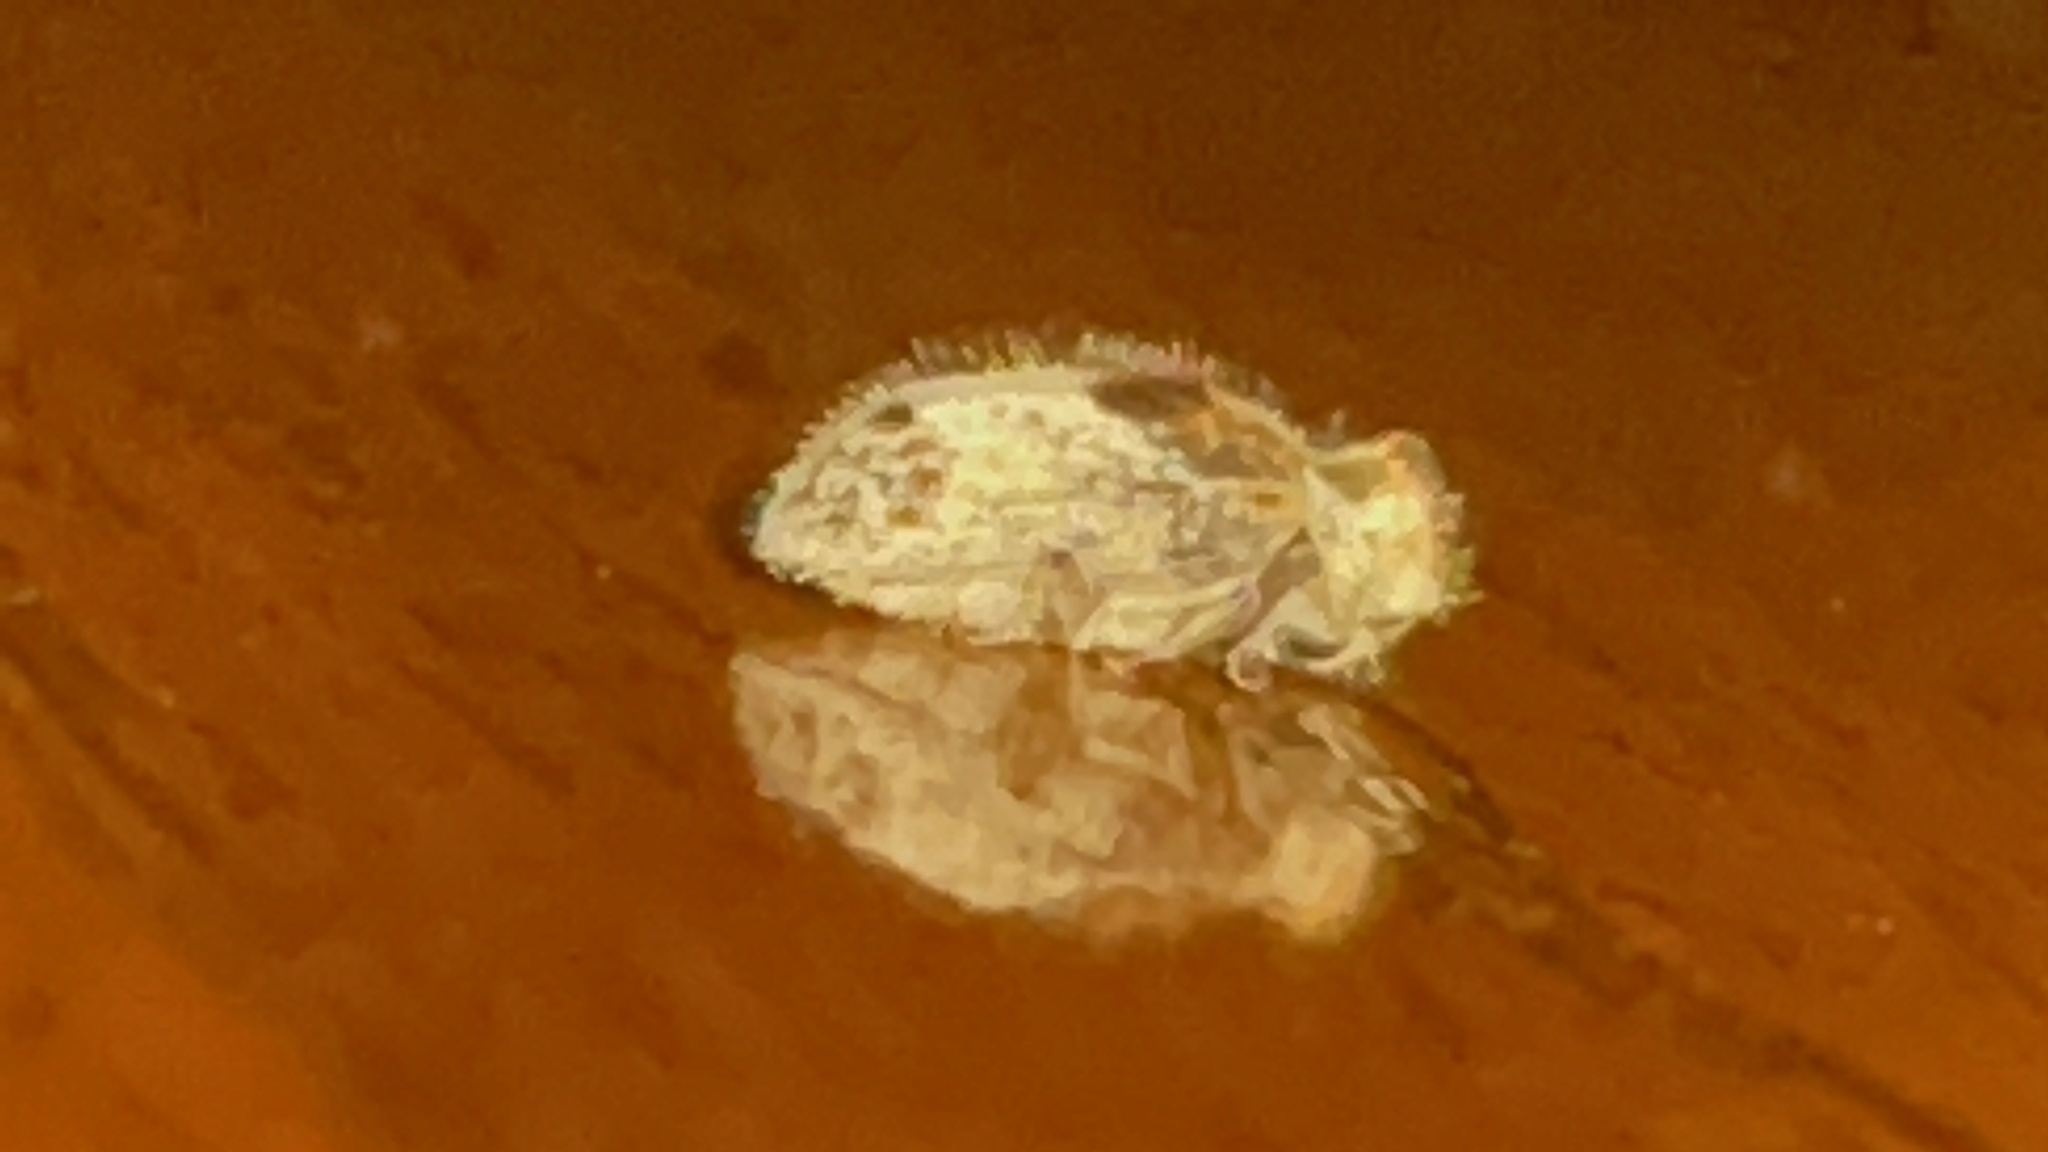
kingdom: Animalia
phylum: Arthropoda
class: Insecta
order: Coleoptera
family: Anobiidae
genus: Trichodesma
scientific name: Trichodesma gibbosa
